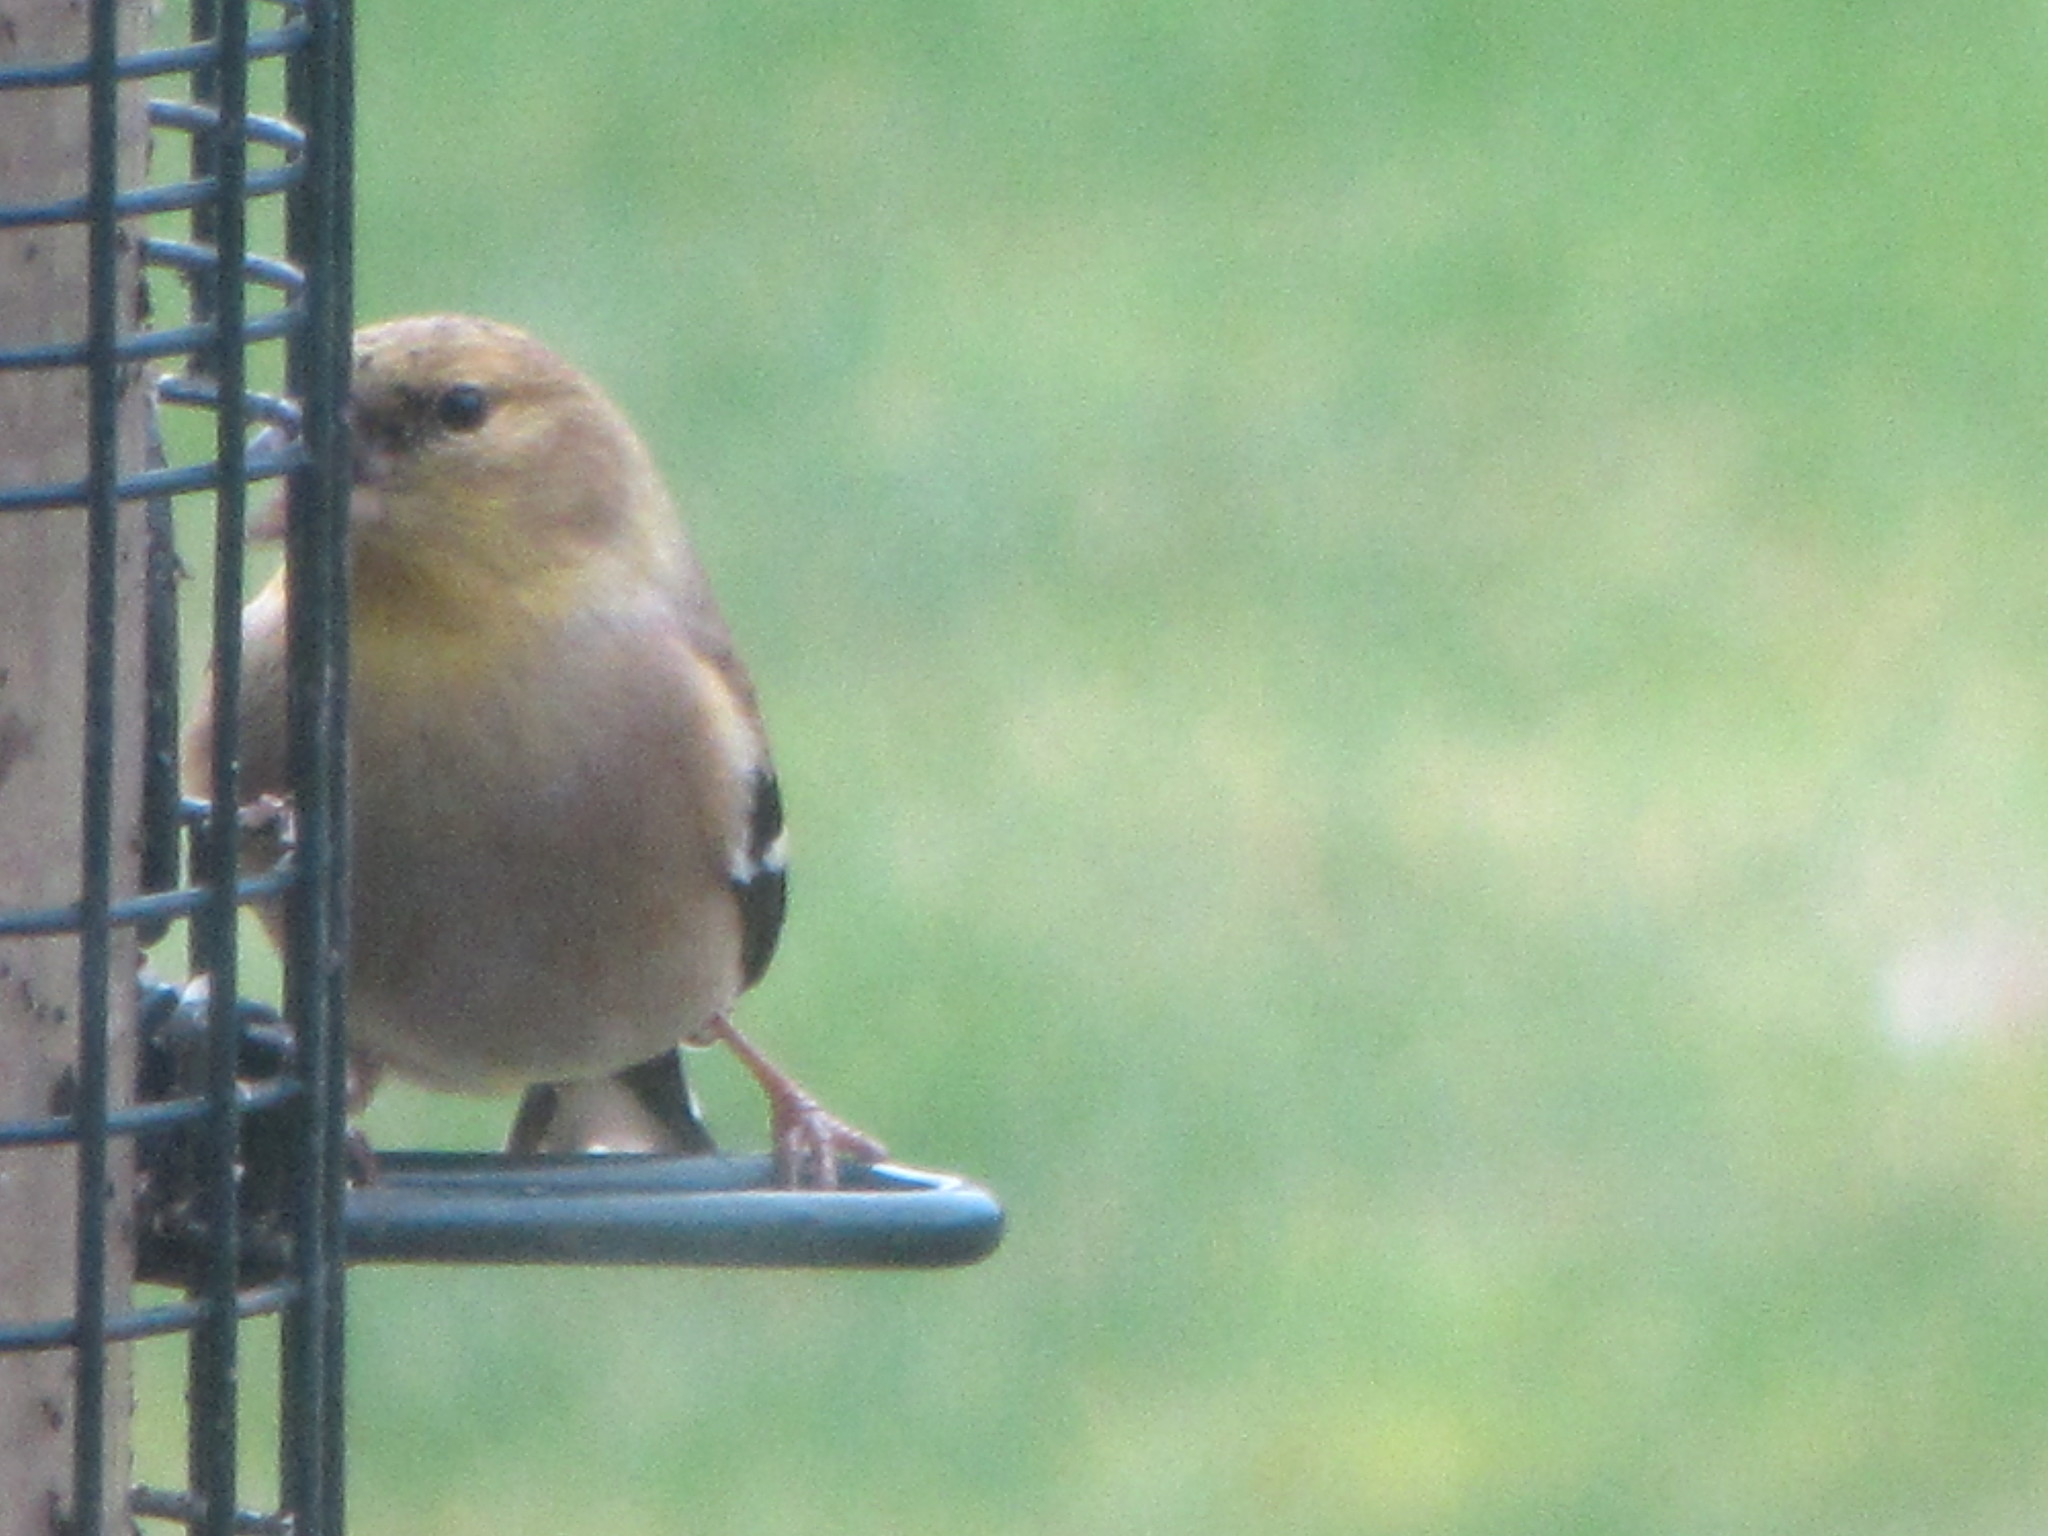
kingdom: Animalia
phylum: Chordata
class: Aves
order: Passeriformes
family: Fringillidae
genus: Spinus
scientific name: Spinus tristis
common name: American goldfinch
